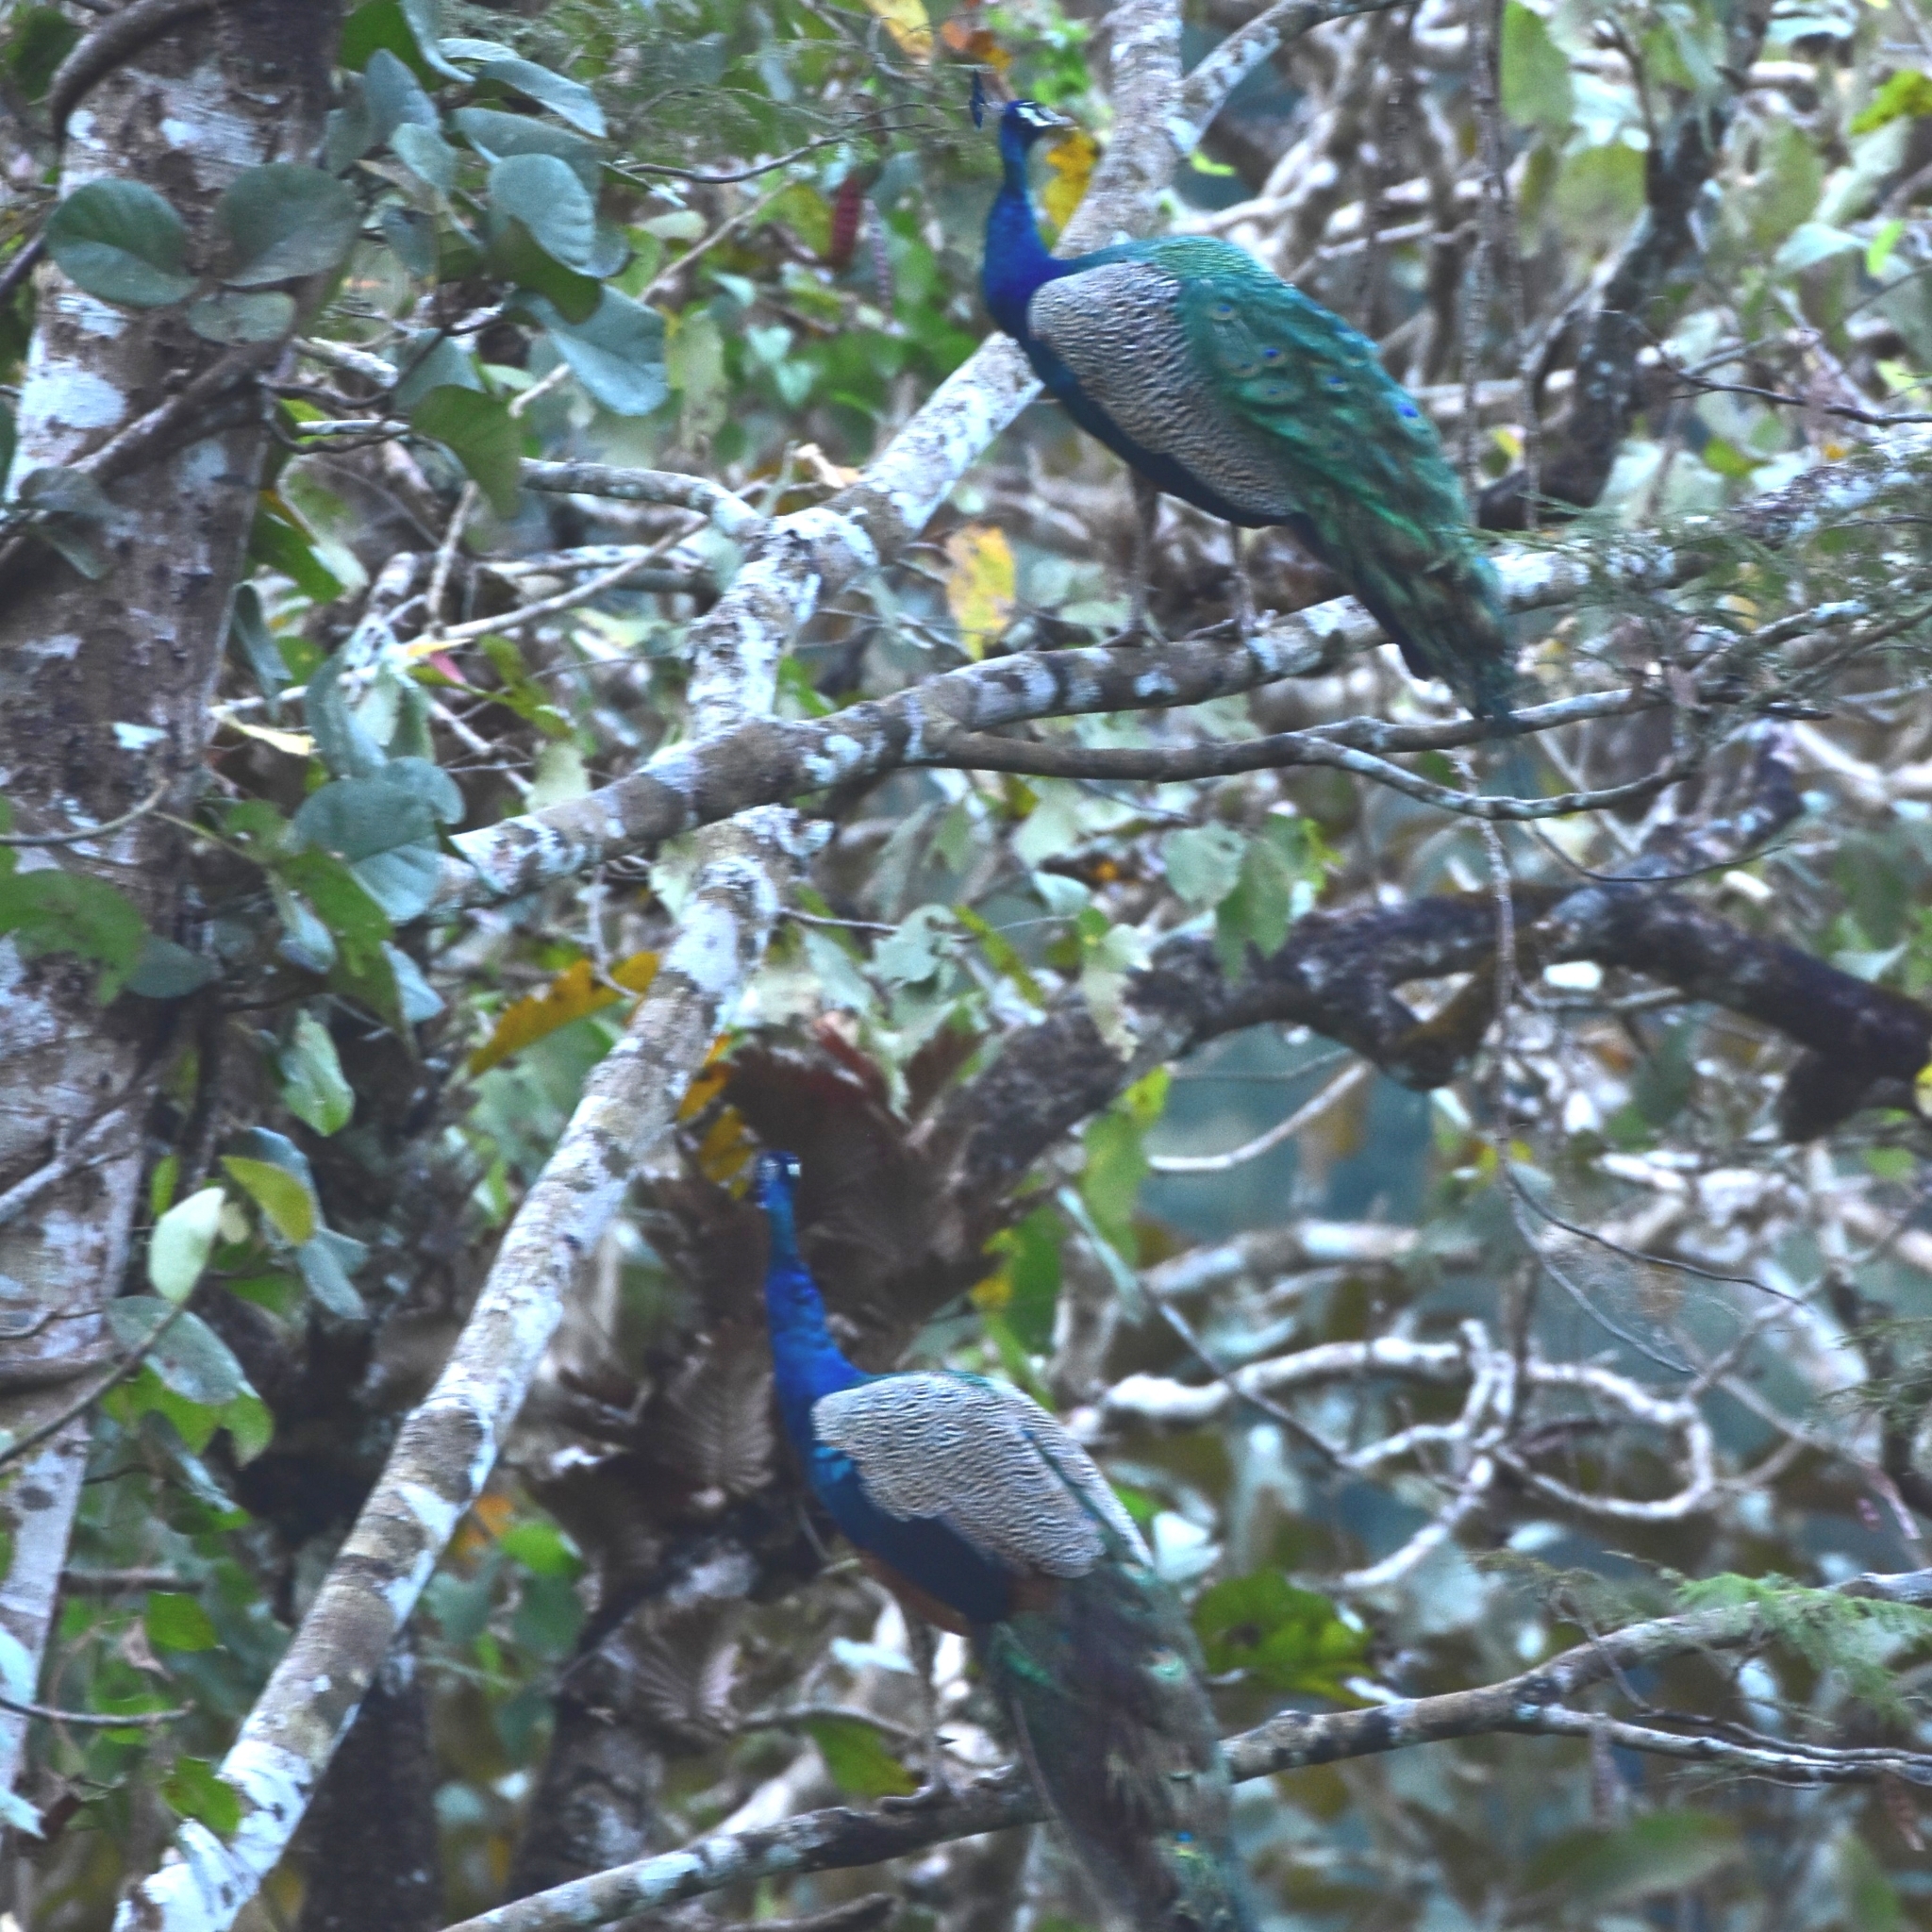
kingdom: Animalia
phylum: Chordata
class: Aves
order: Galliformes
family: Phasianidae
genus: Pavo
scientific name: Pavo cristatus
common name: Indian peafowl
